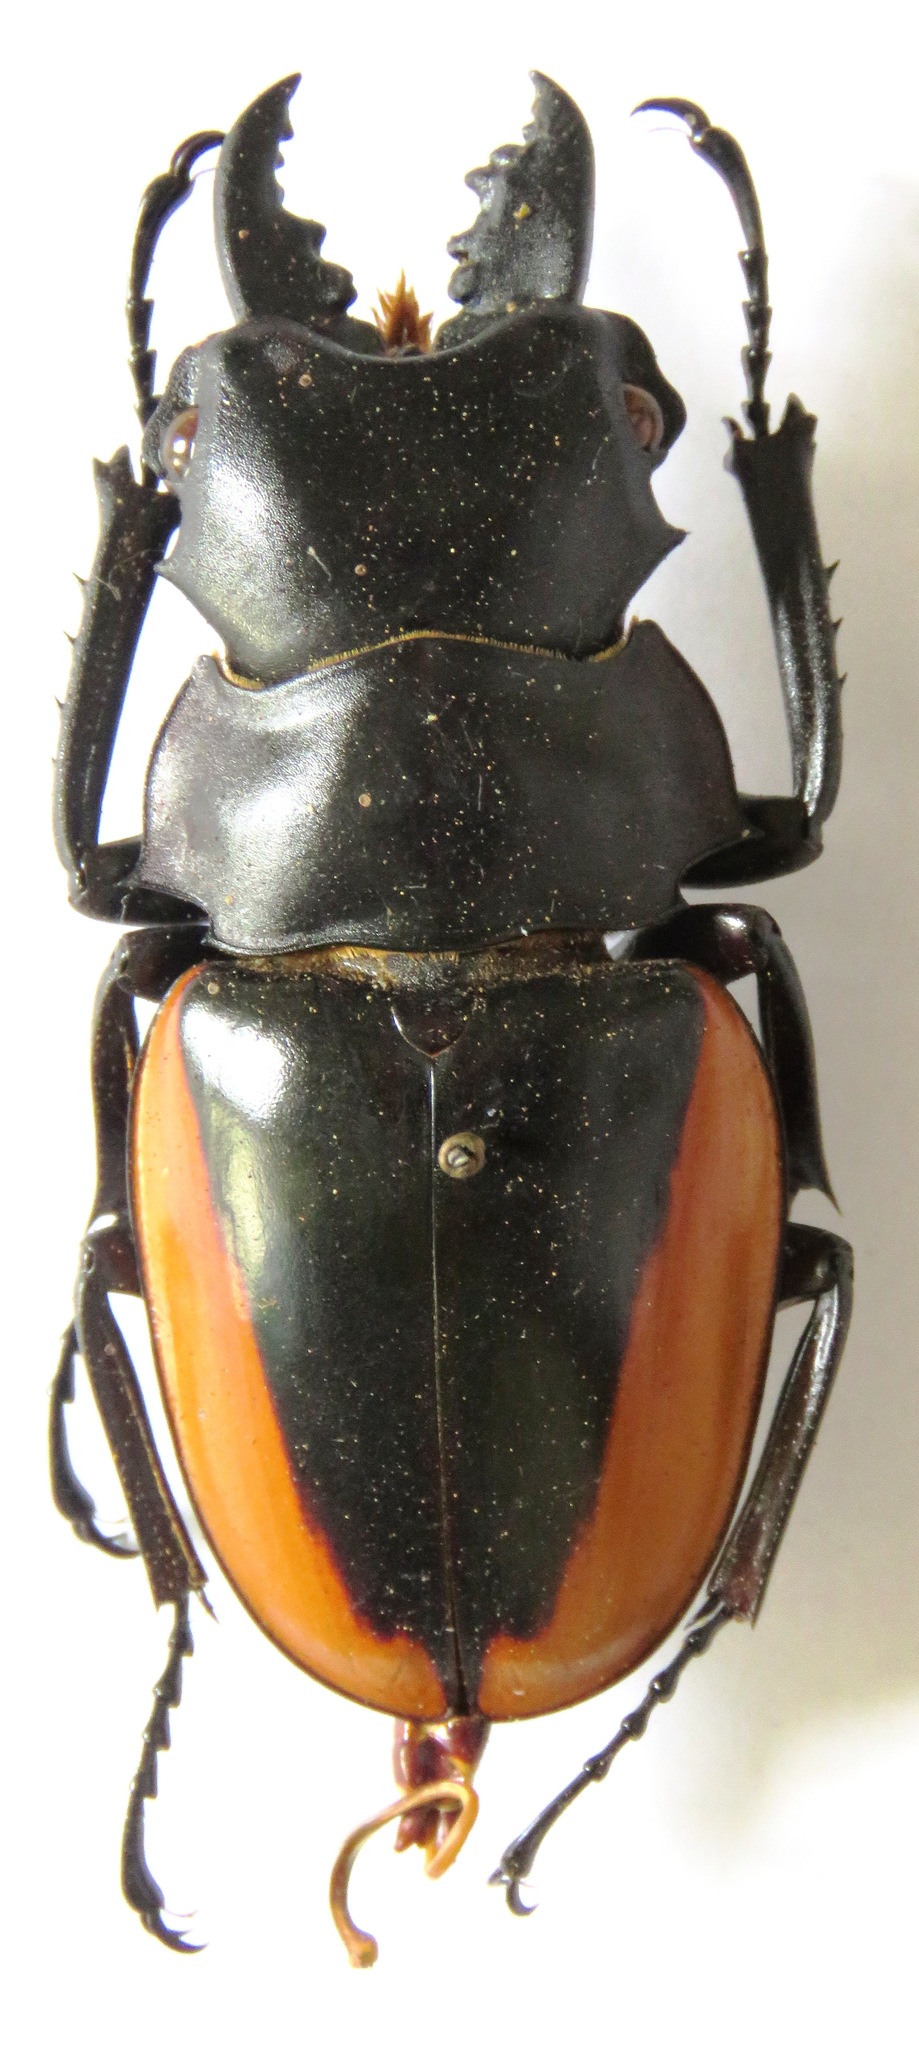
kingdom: Animalia
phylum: Arthropoda
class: Insecta
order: Coleoptera
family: Lucanidae
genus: Odontolabis
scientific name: Odontolabis cuvera
